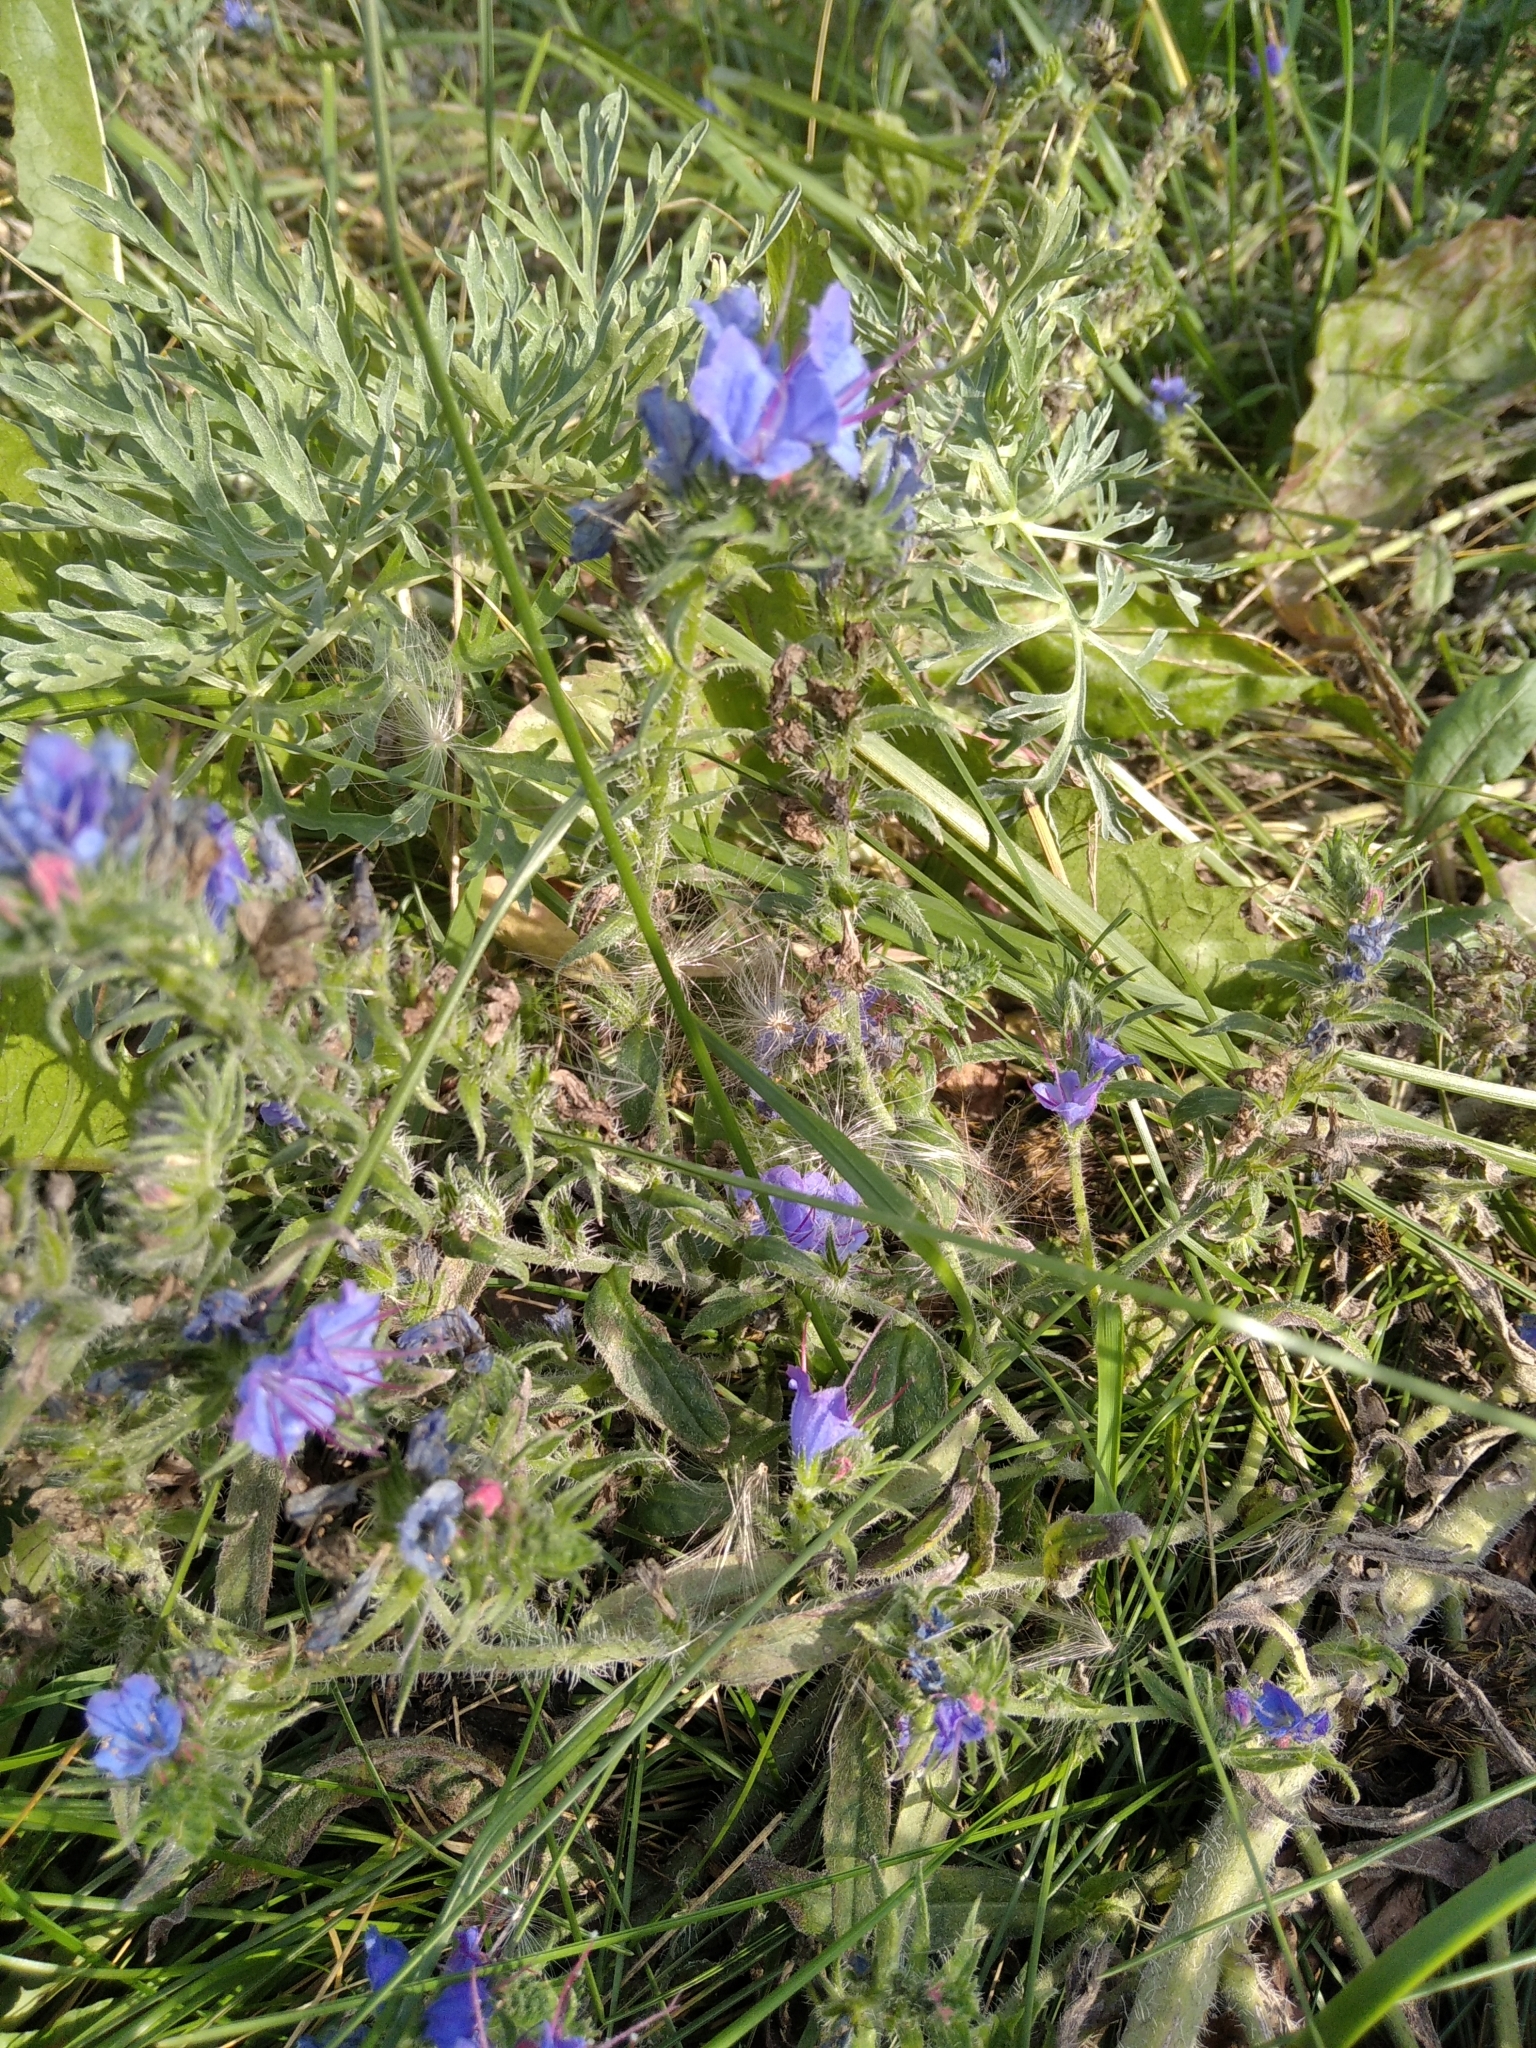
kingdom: Plantae
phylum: Tracheophyta
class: Magnoliopsida
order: Boraginales
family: Boraginaceae
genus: Echium
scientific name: Echium vulgare
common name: Common viper's bugloss
